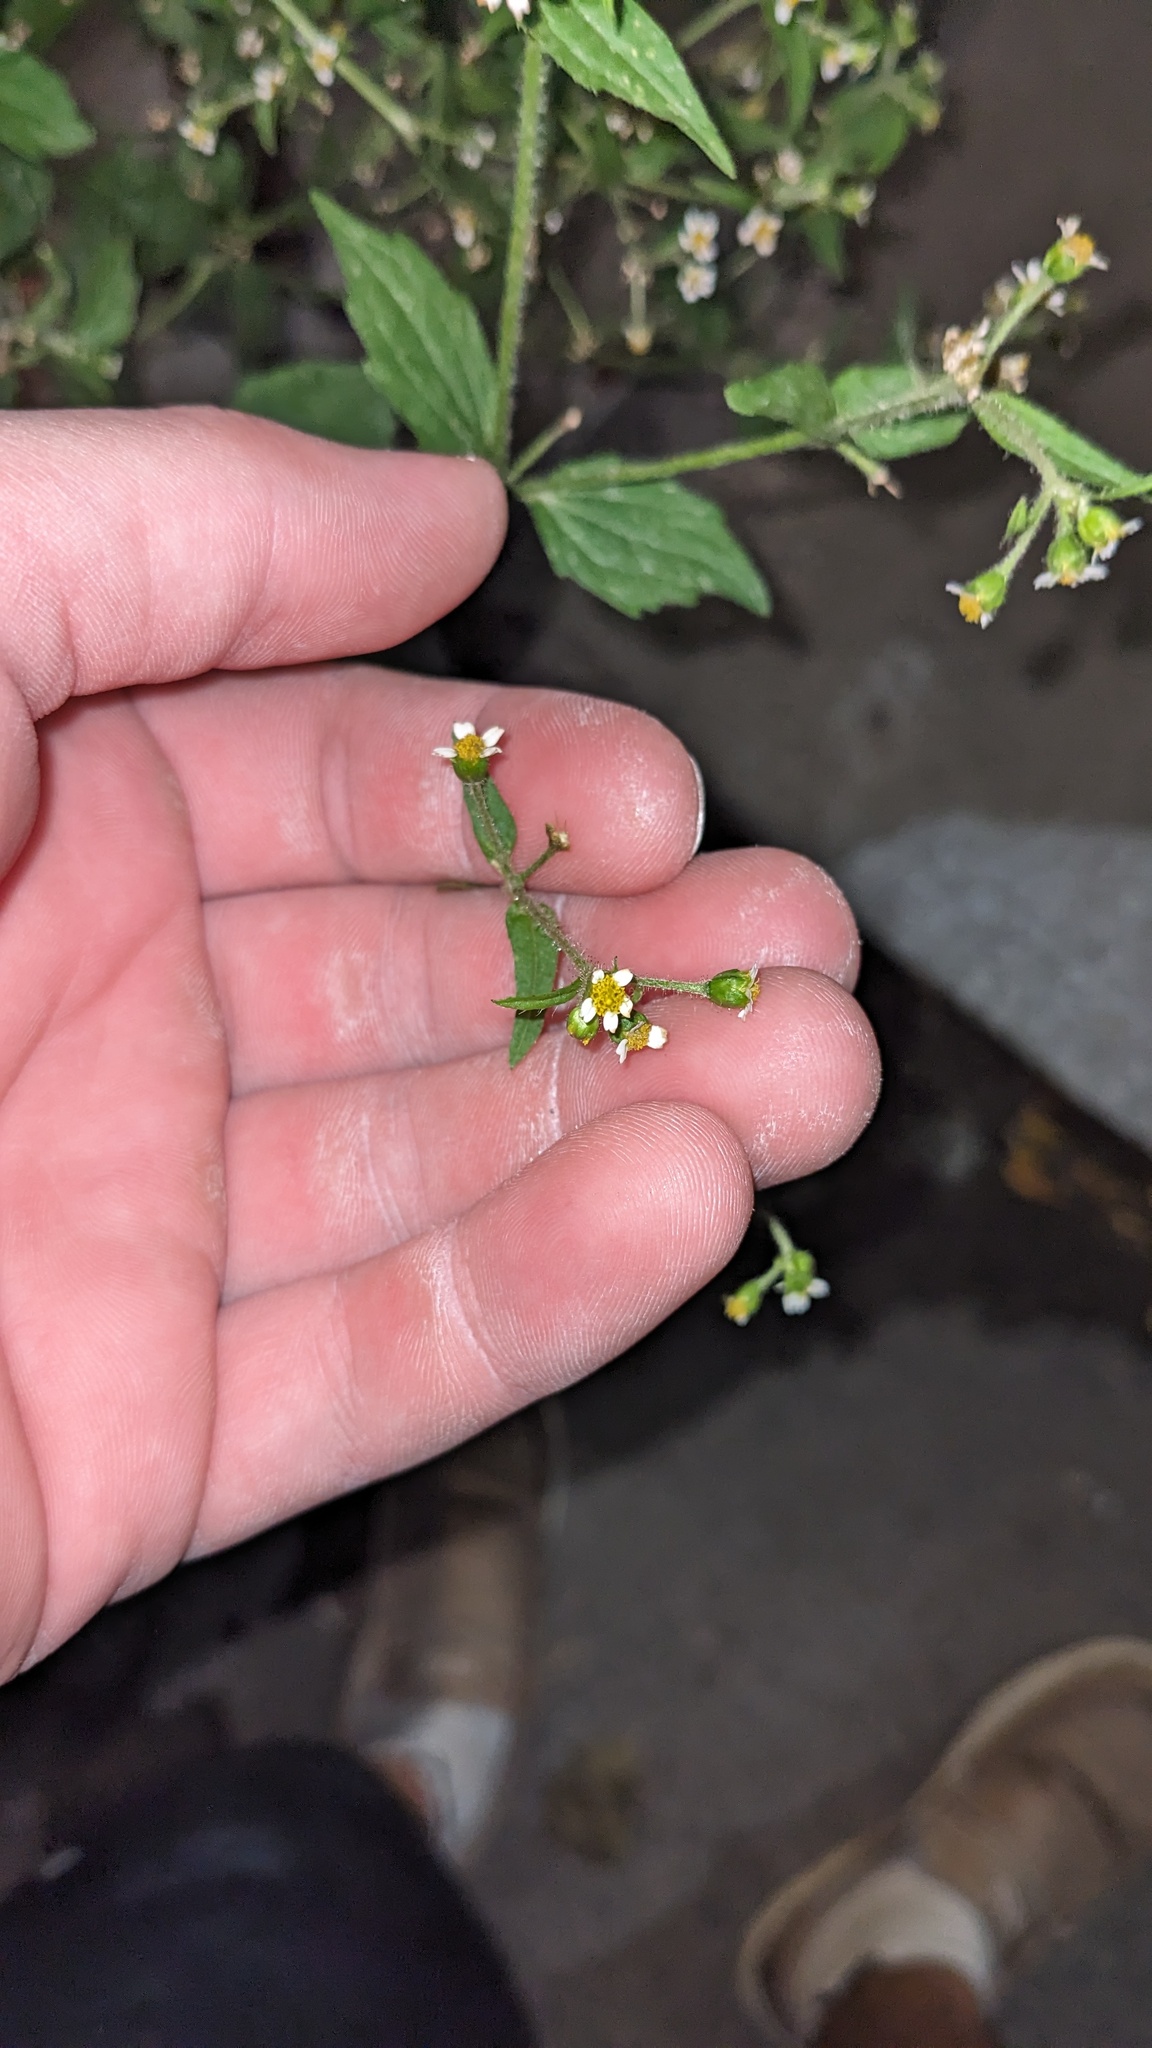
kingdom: Plantae
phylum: Tracheophyta
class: Magnoliopsida
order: Asterales
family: Asteraceae
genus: Galinsoga
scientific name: Galinsoga quadriradiata
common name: Shaggy soldier
